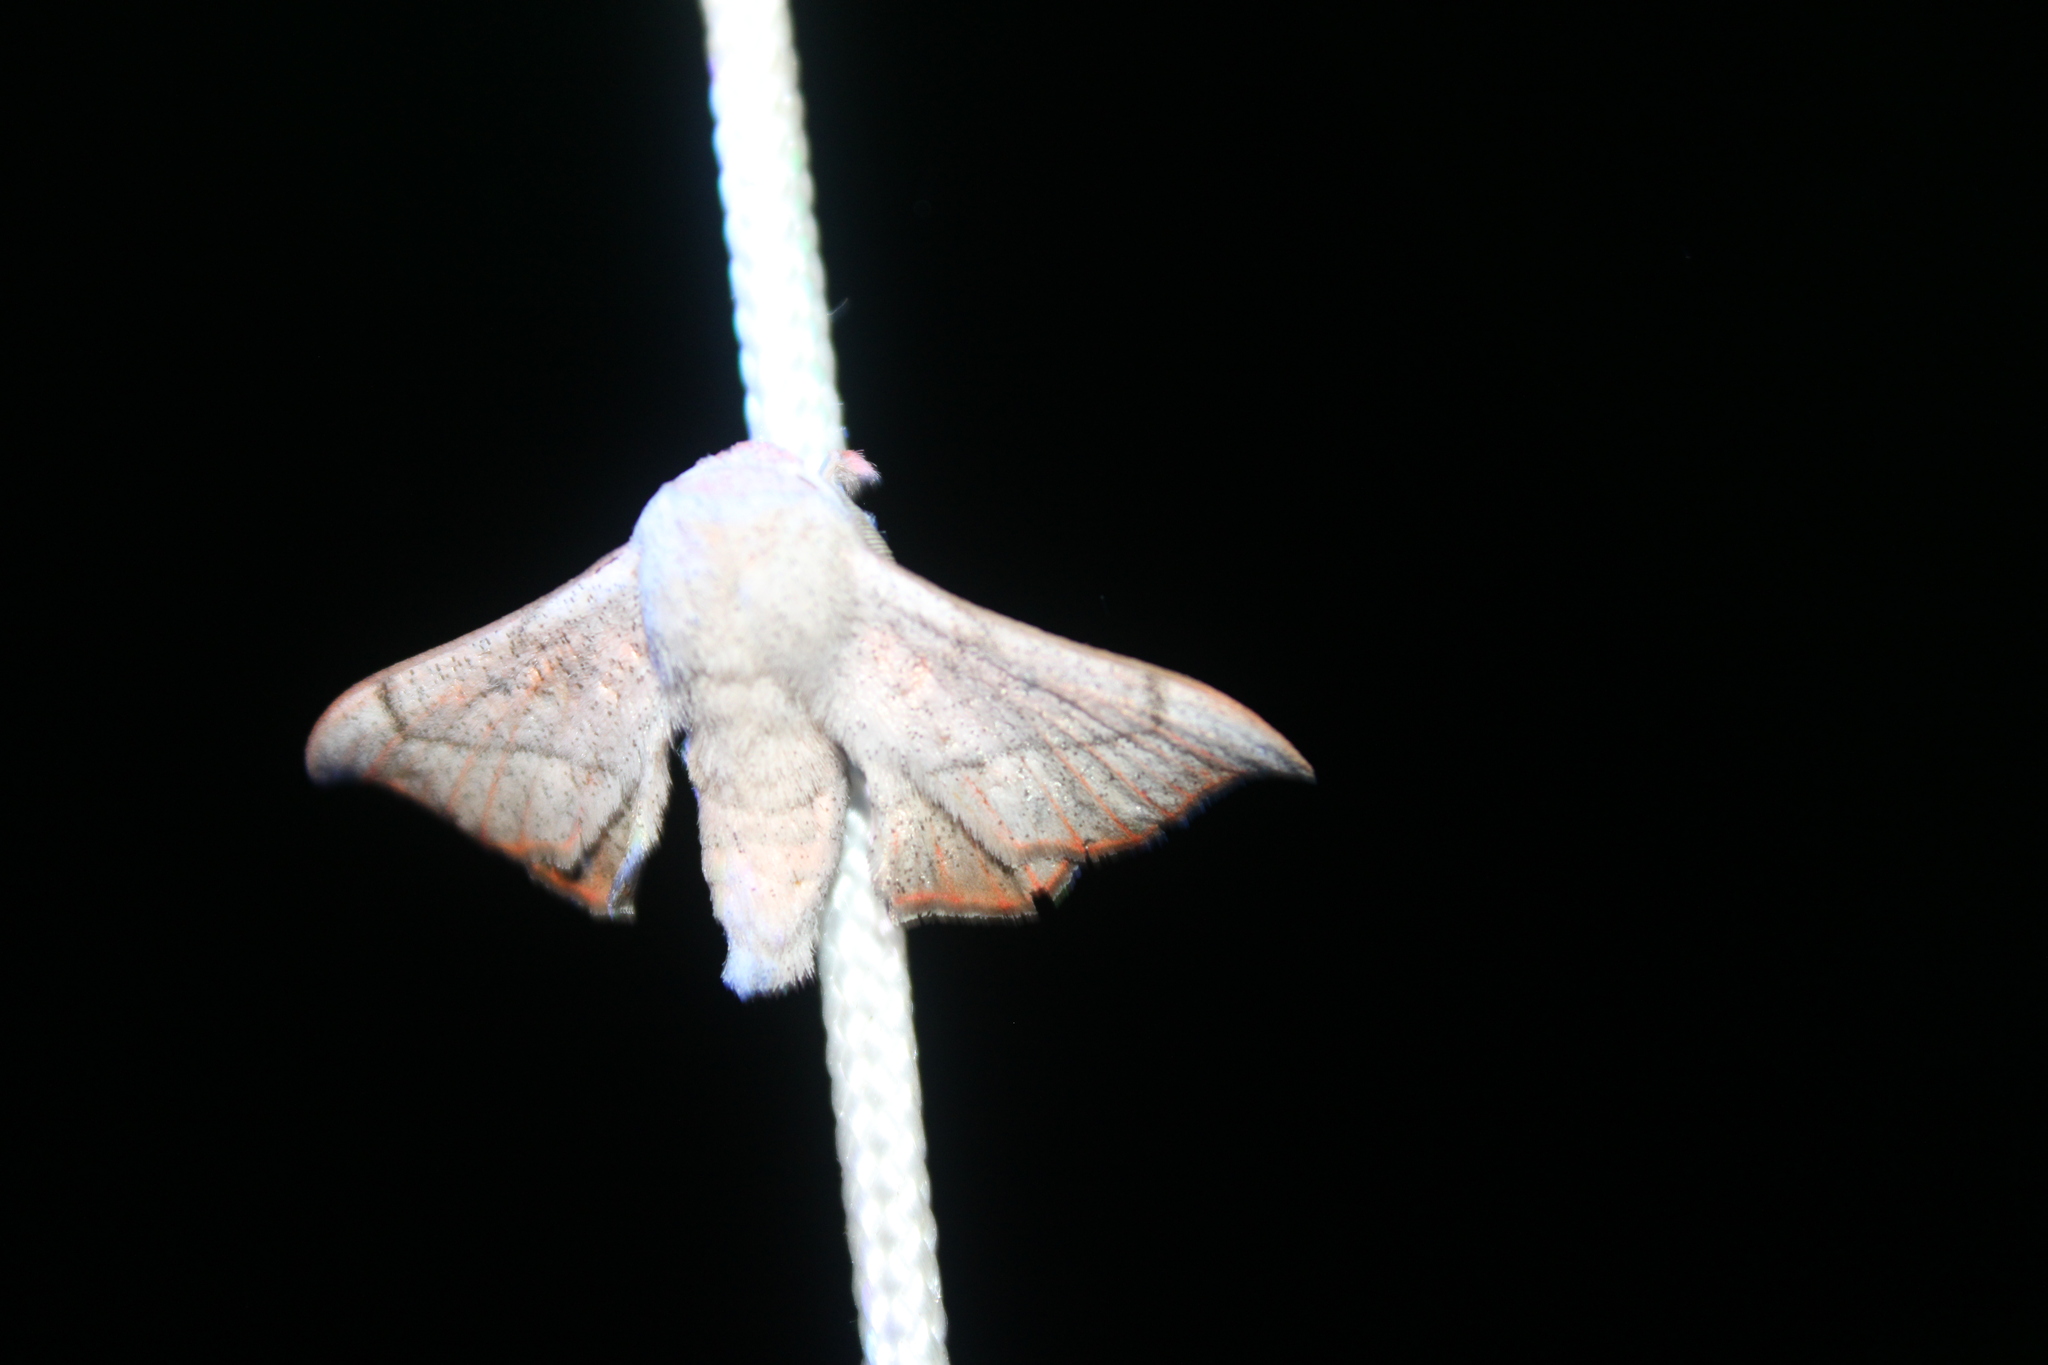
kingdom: Animalia
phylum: Arthropoda
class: Insecta
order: Lepidoptera
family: Mimallonidae
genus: Cicinnus
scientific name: Cicinnus melsheimeri
